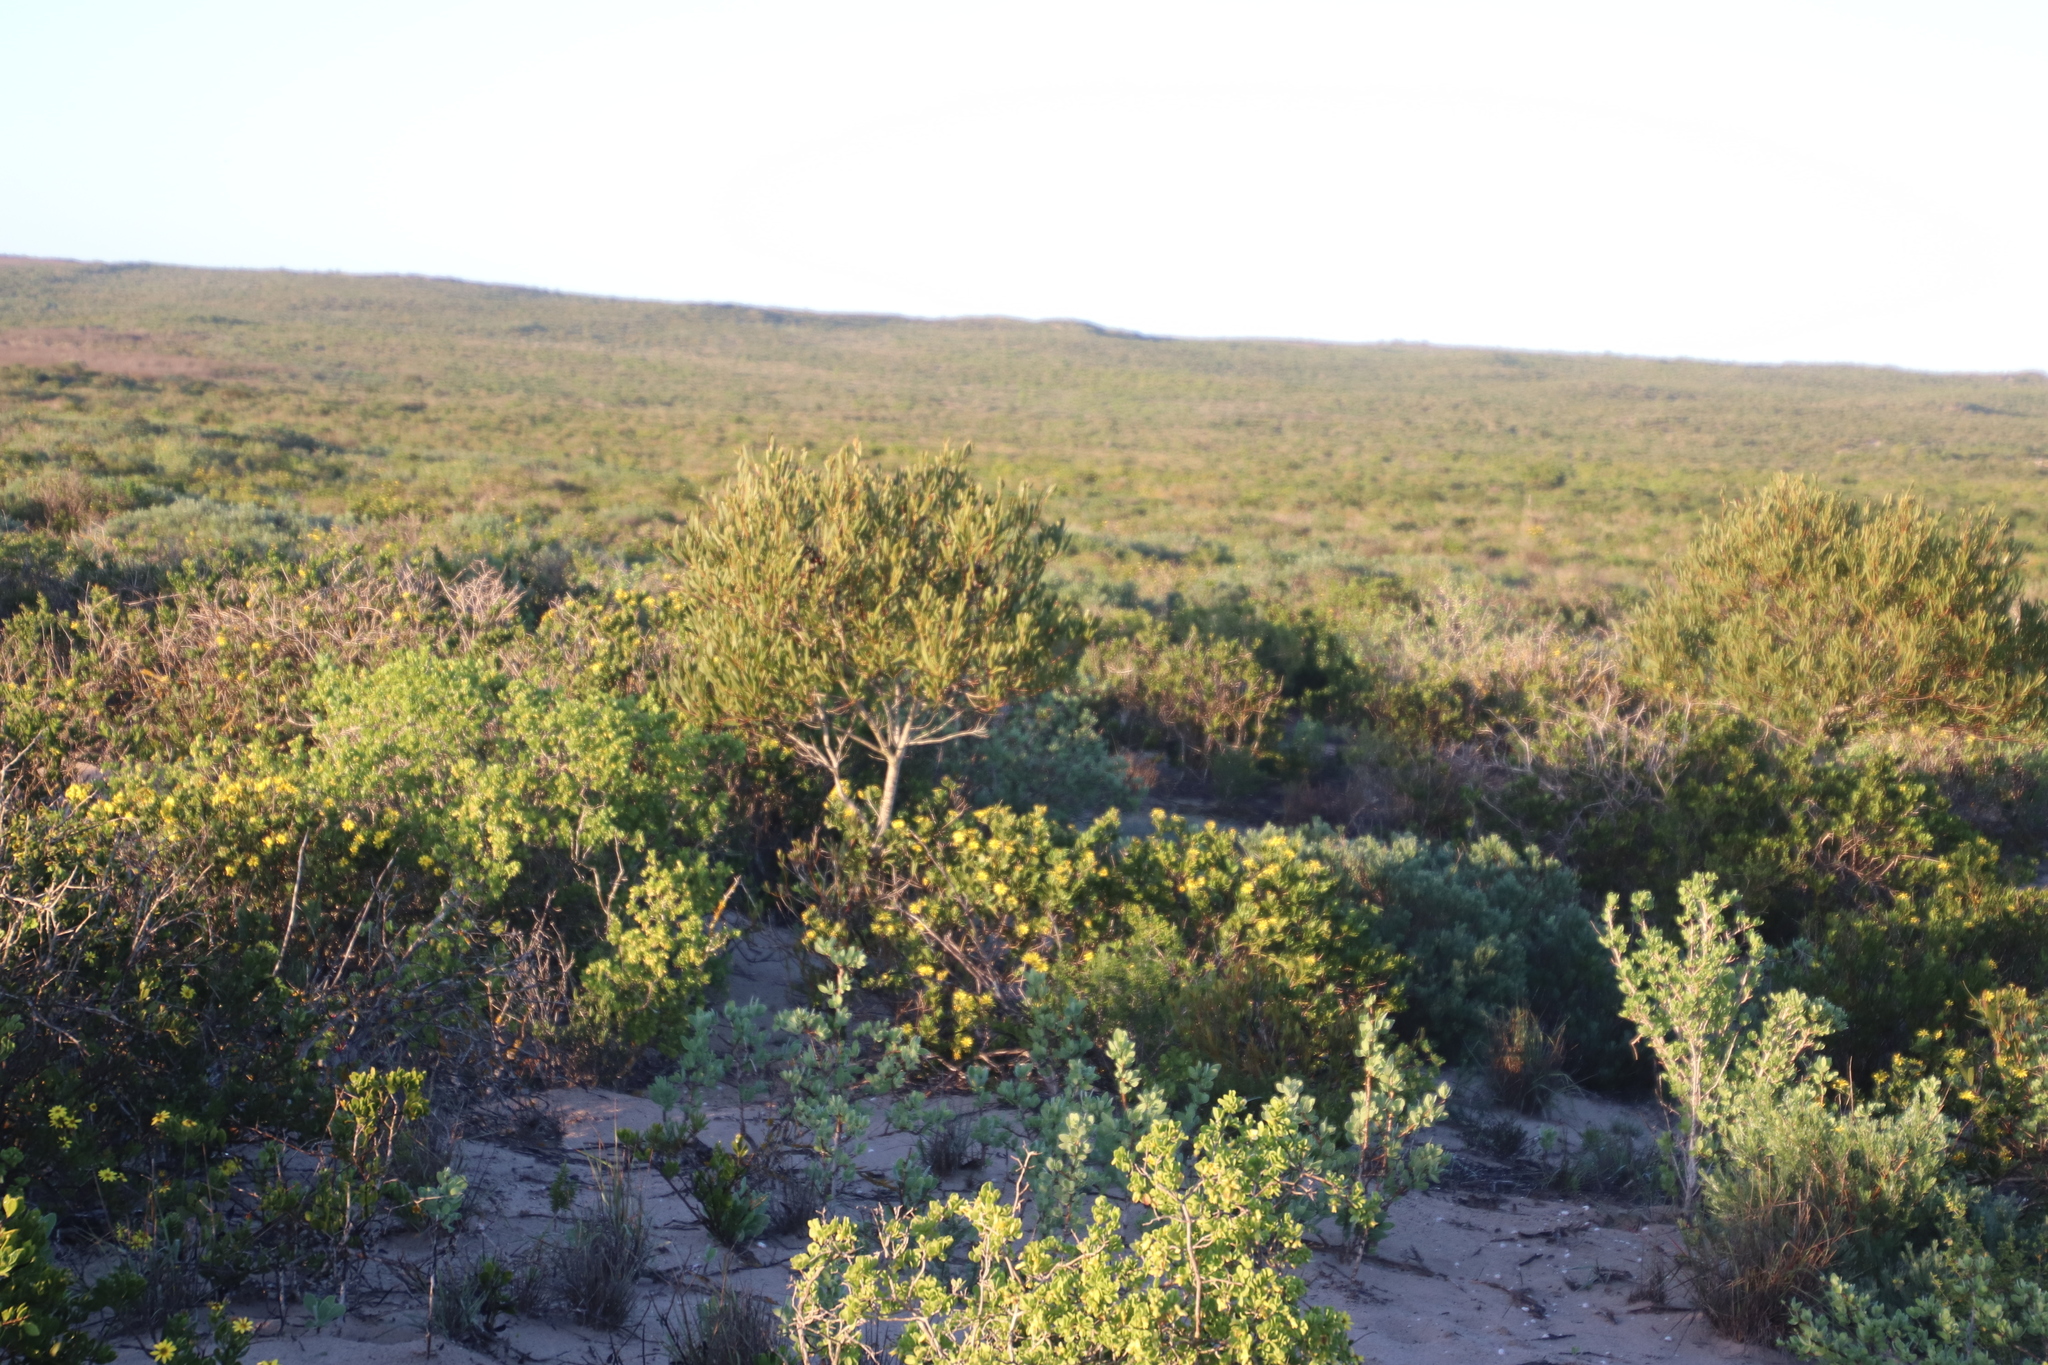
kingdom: Plantae
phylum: Tracheophyta
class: Magnoliopsida
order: Fabales
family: Fabaceae
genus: Acacia
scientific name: Acacia cyclops
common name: Coastal wattle
